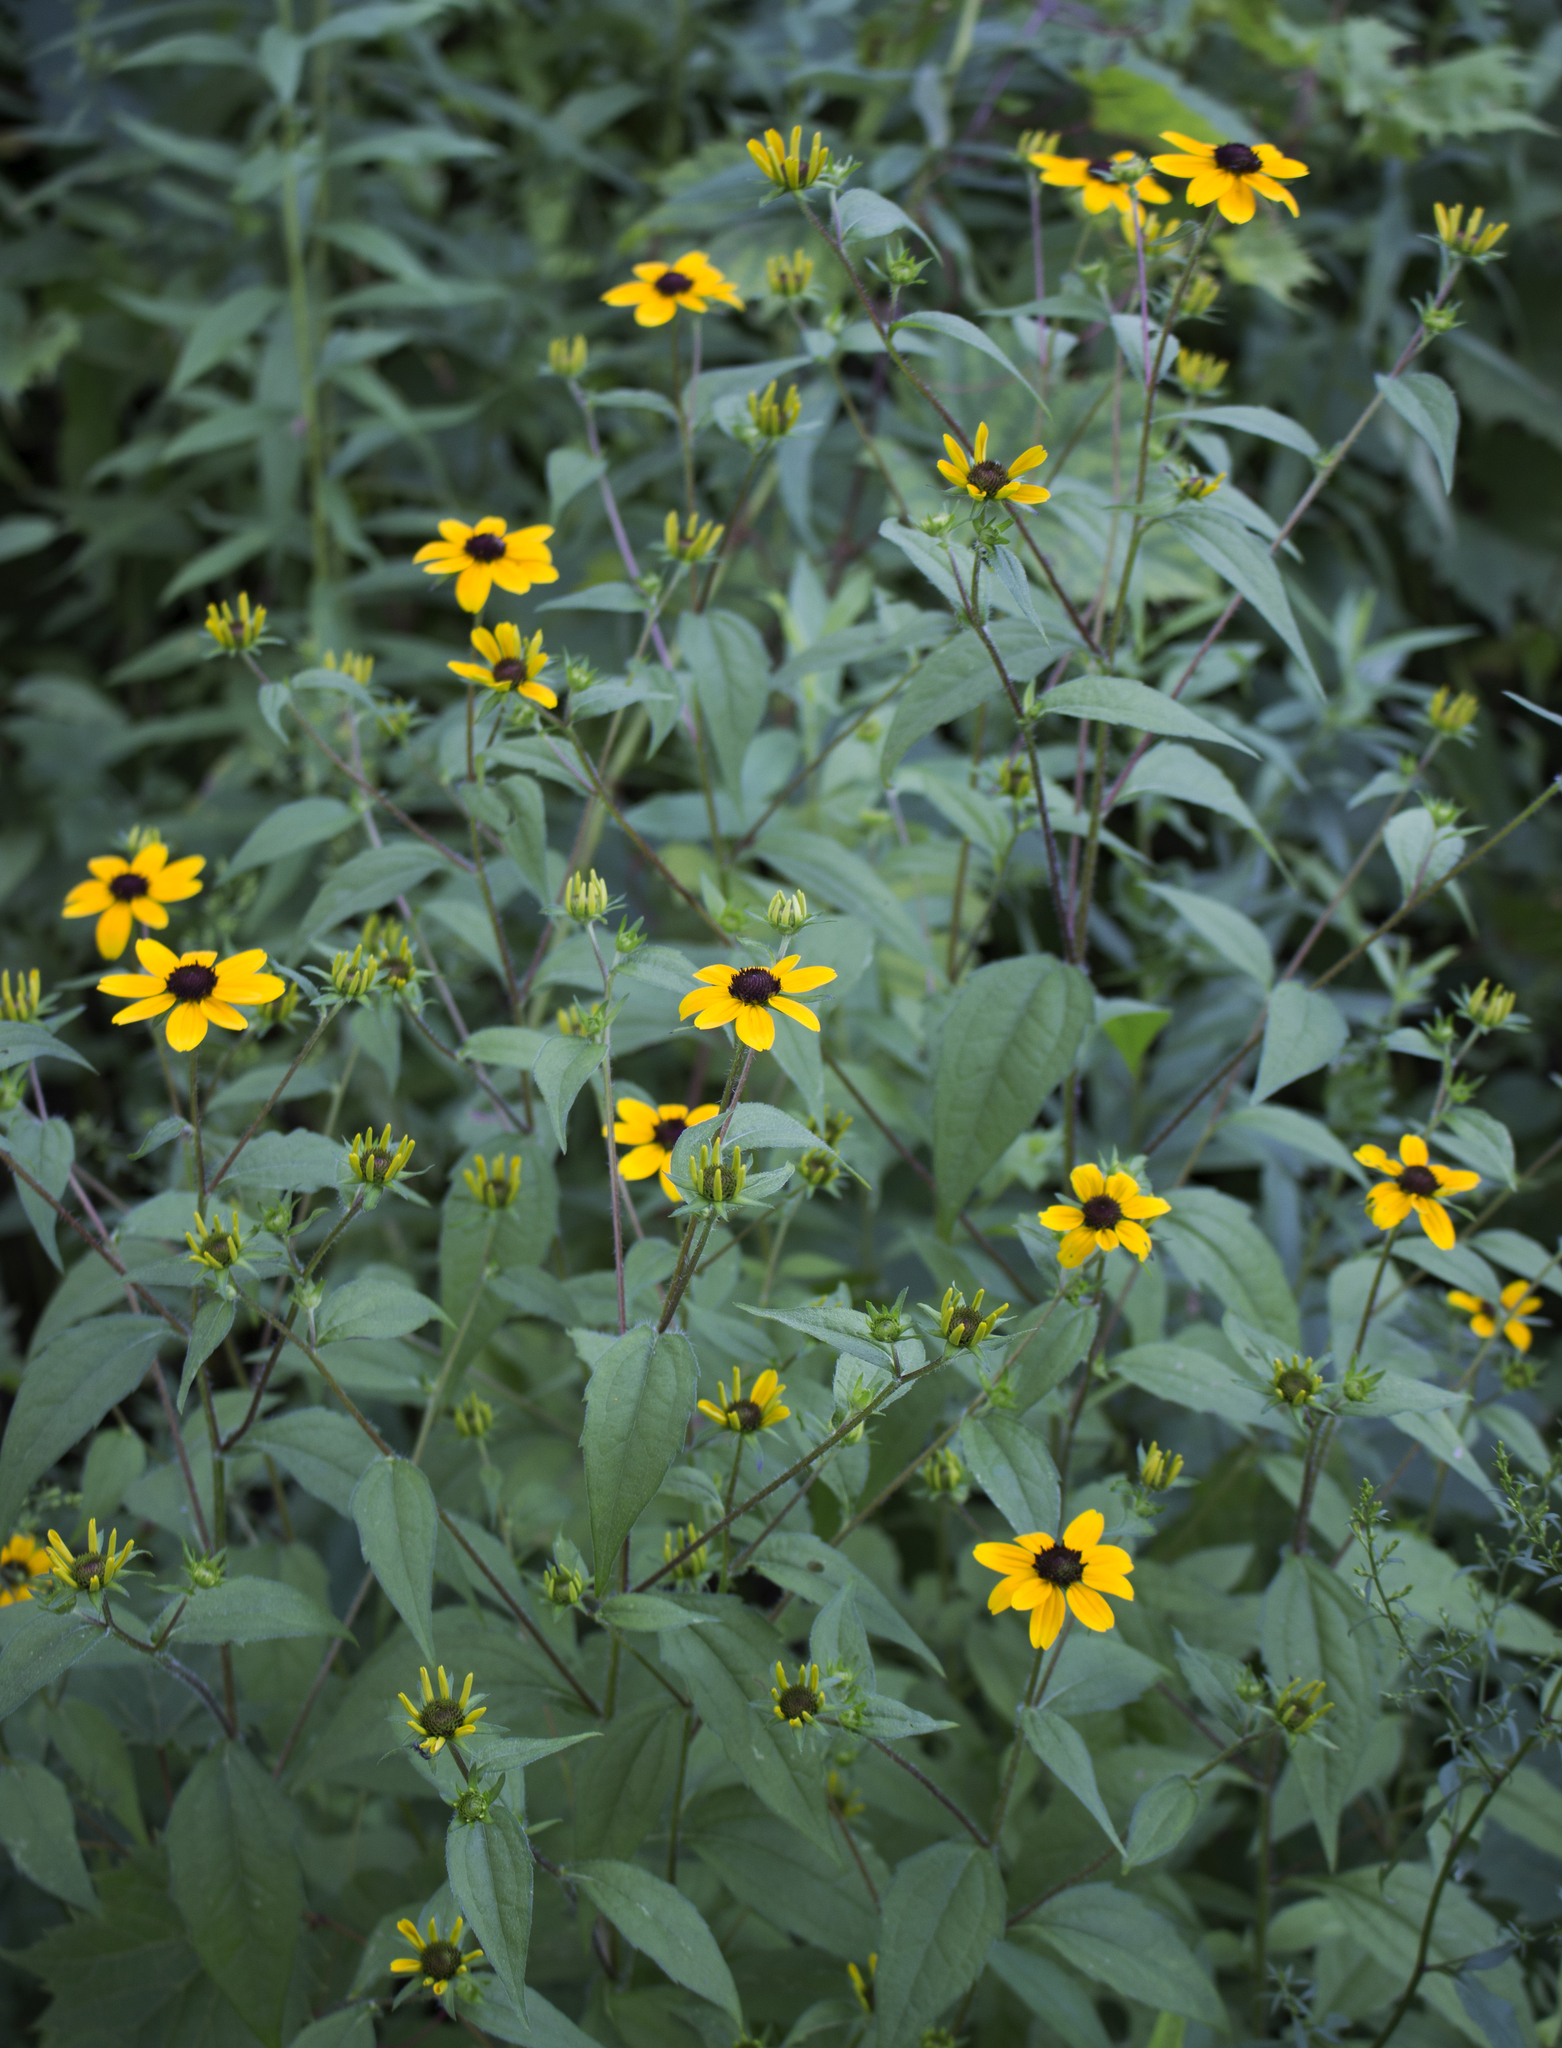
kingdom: Plantae
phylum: Tracheophyta
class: Magnoliopsida
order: Asterales
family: Asteraceae
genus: Rudbeckia
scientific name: Rudbeckia triloba
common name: Thin-leaved coneflower
